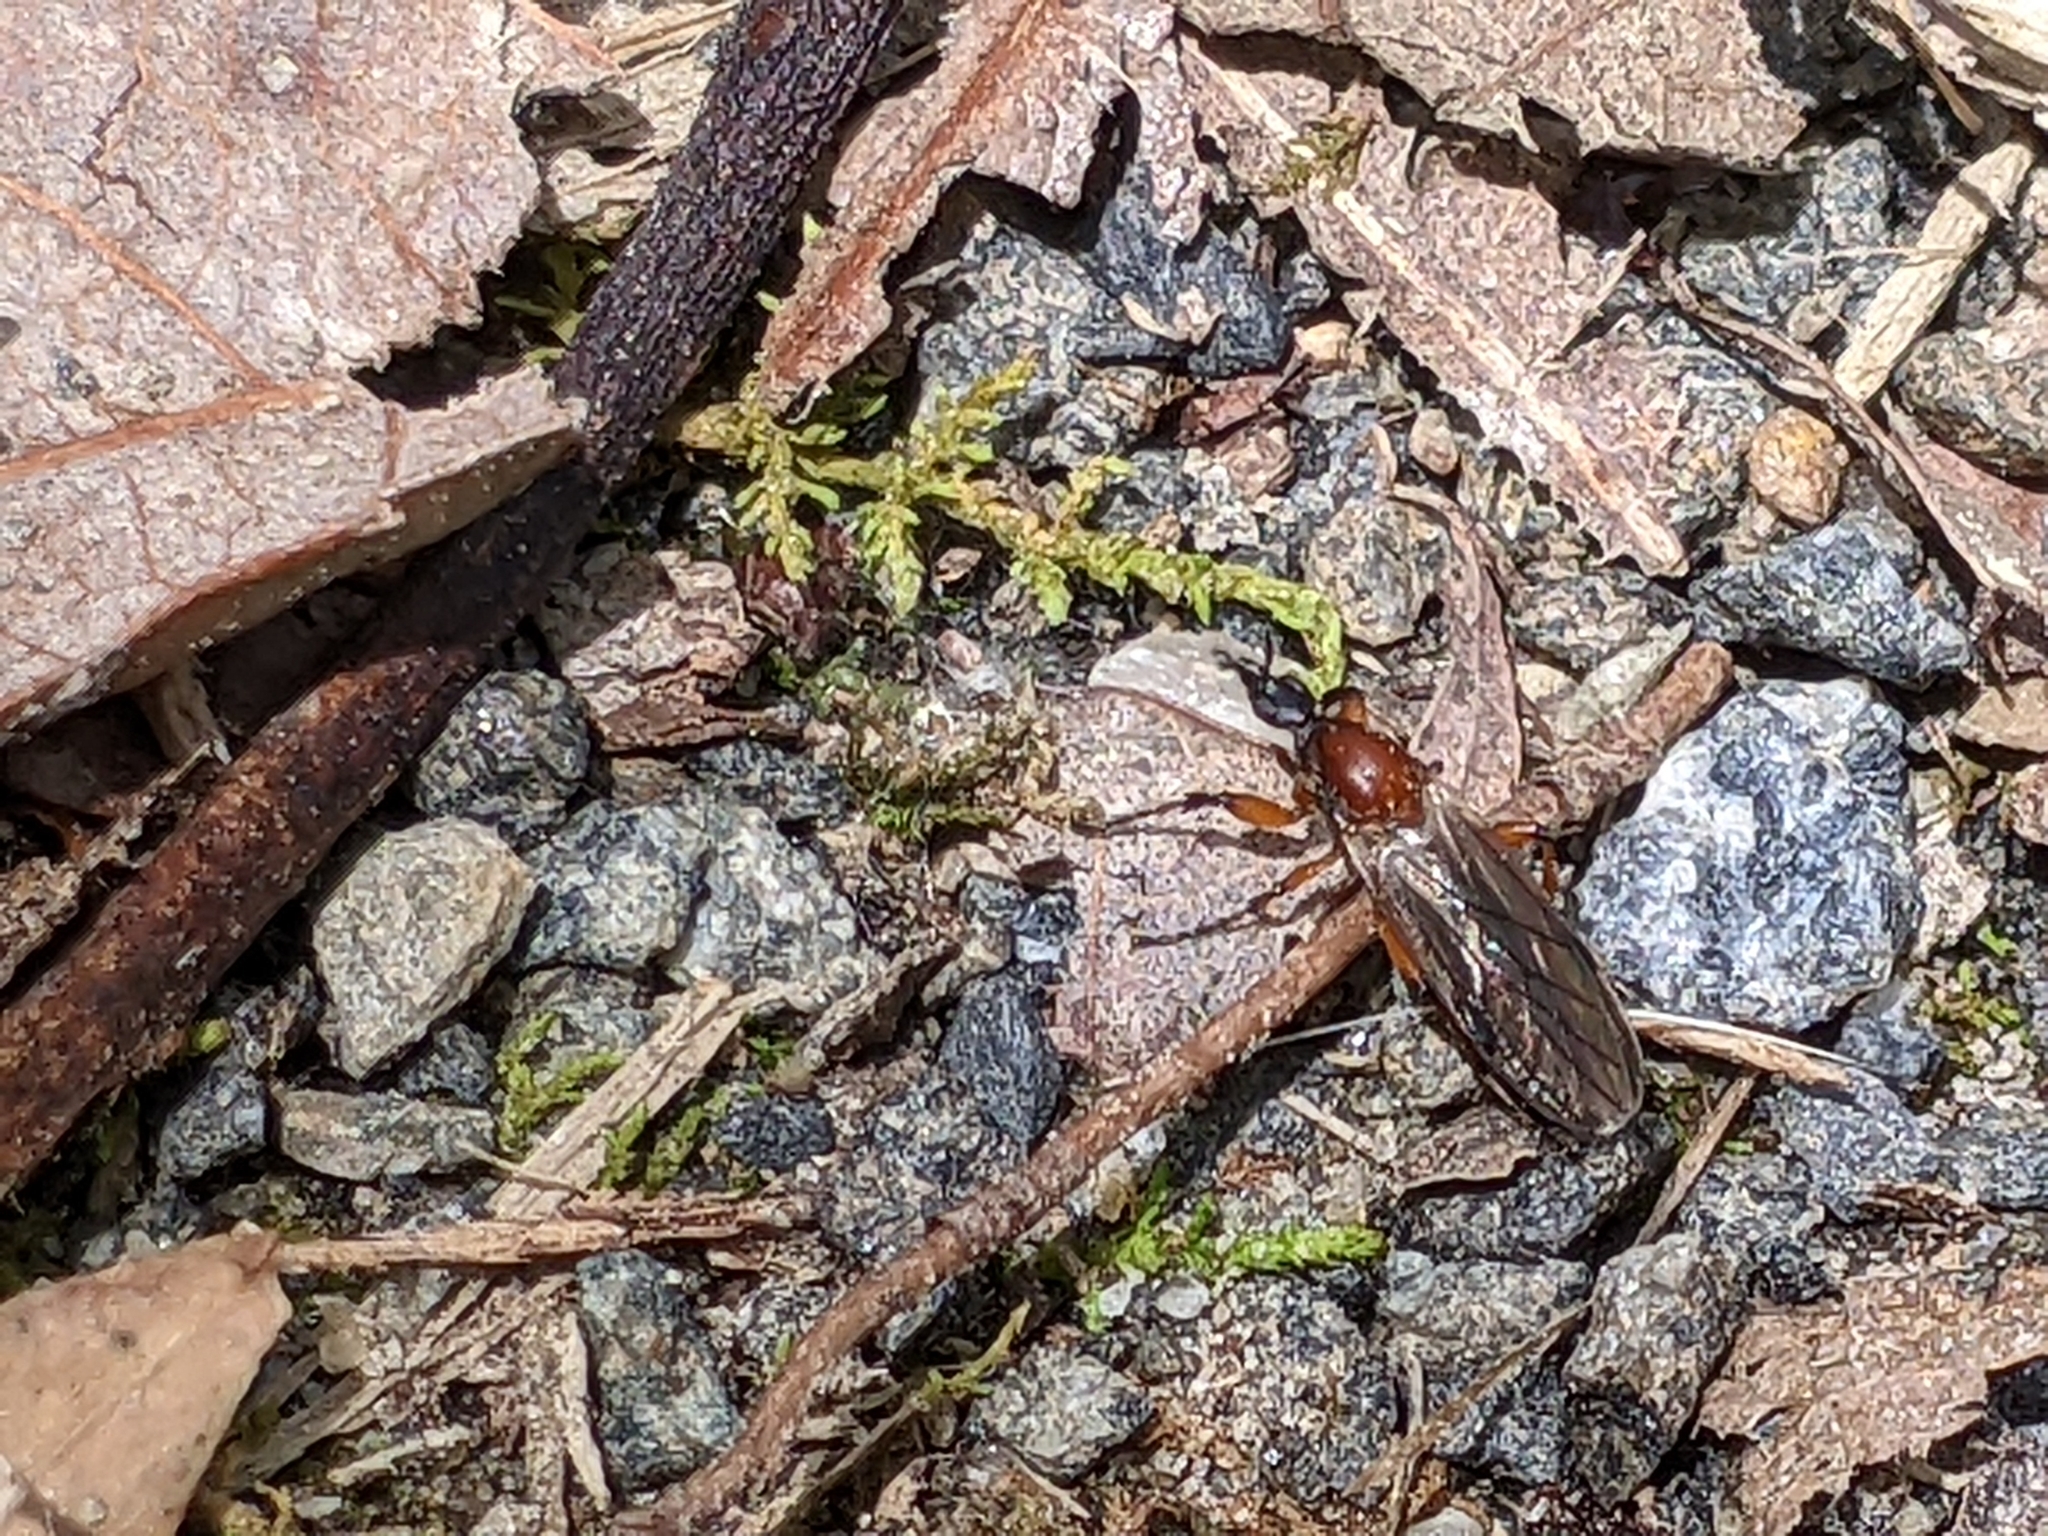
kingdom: Animalia
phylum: Arthropoda
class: Insecta
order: Diptera
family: Bibionidae
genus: Bibio
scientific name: Bibio articulatus
